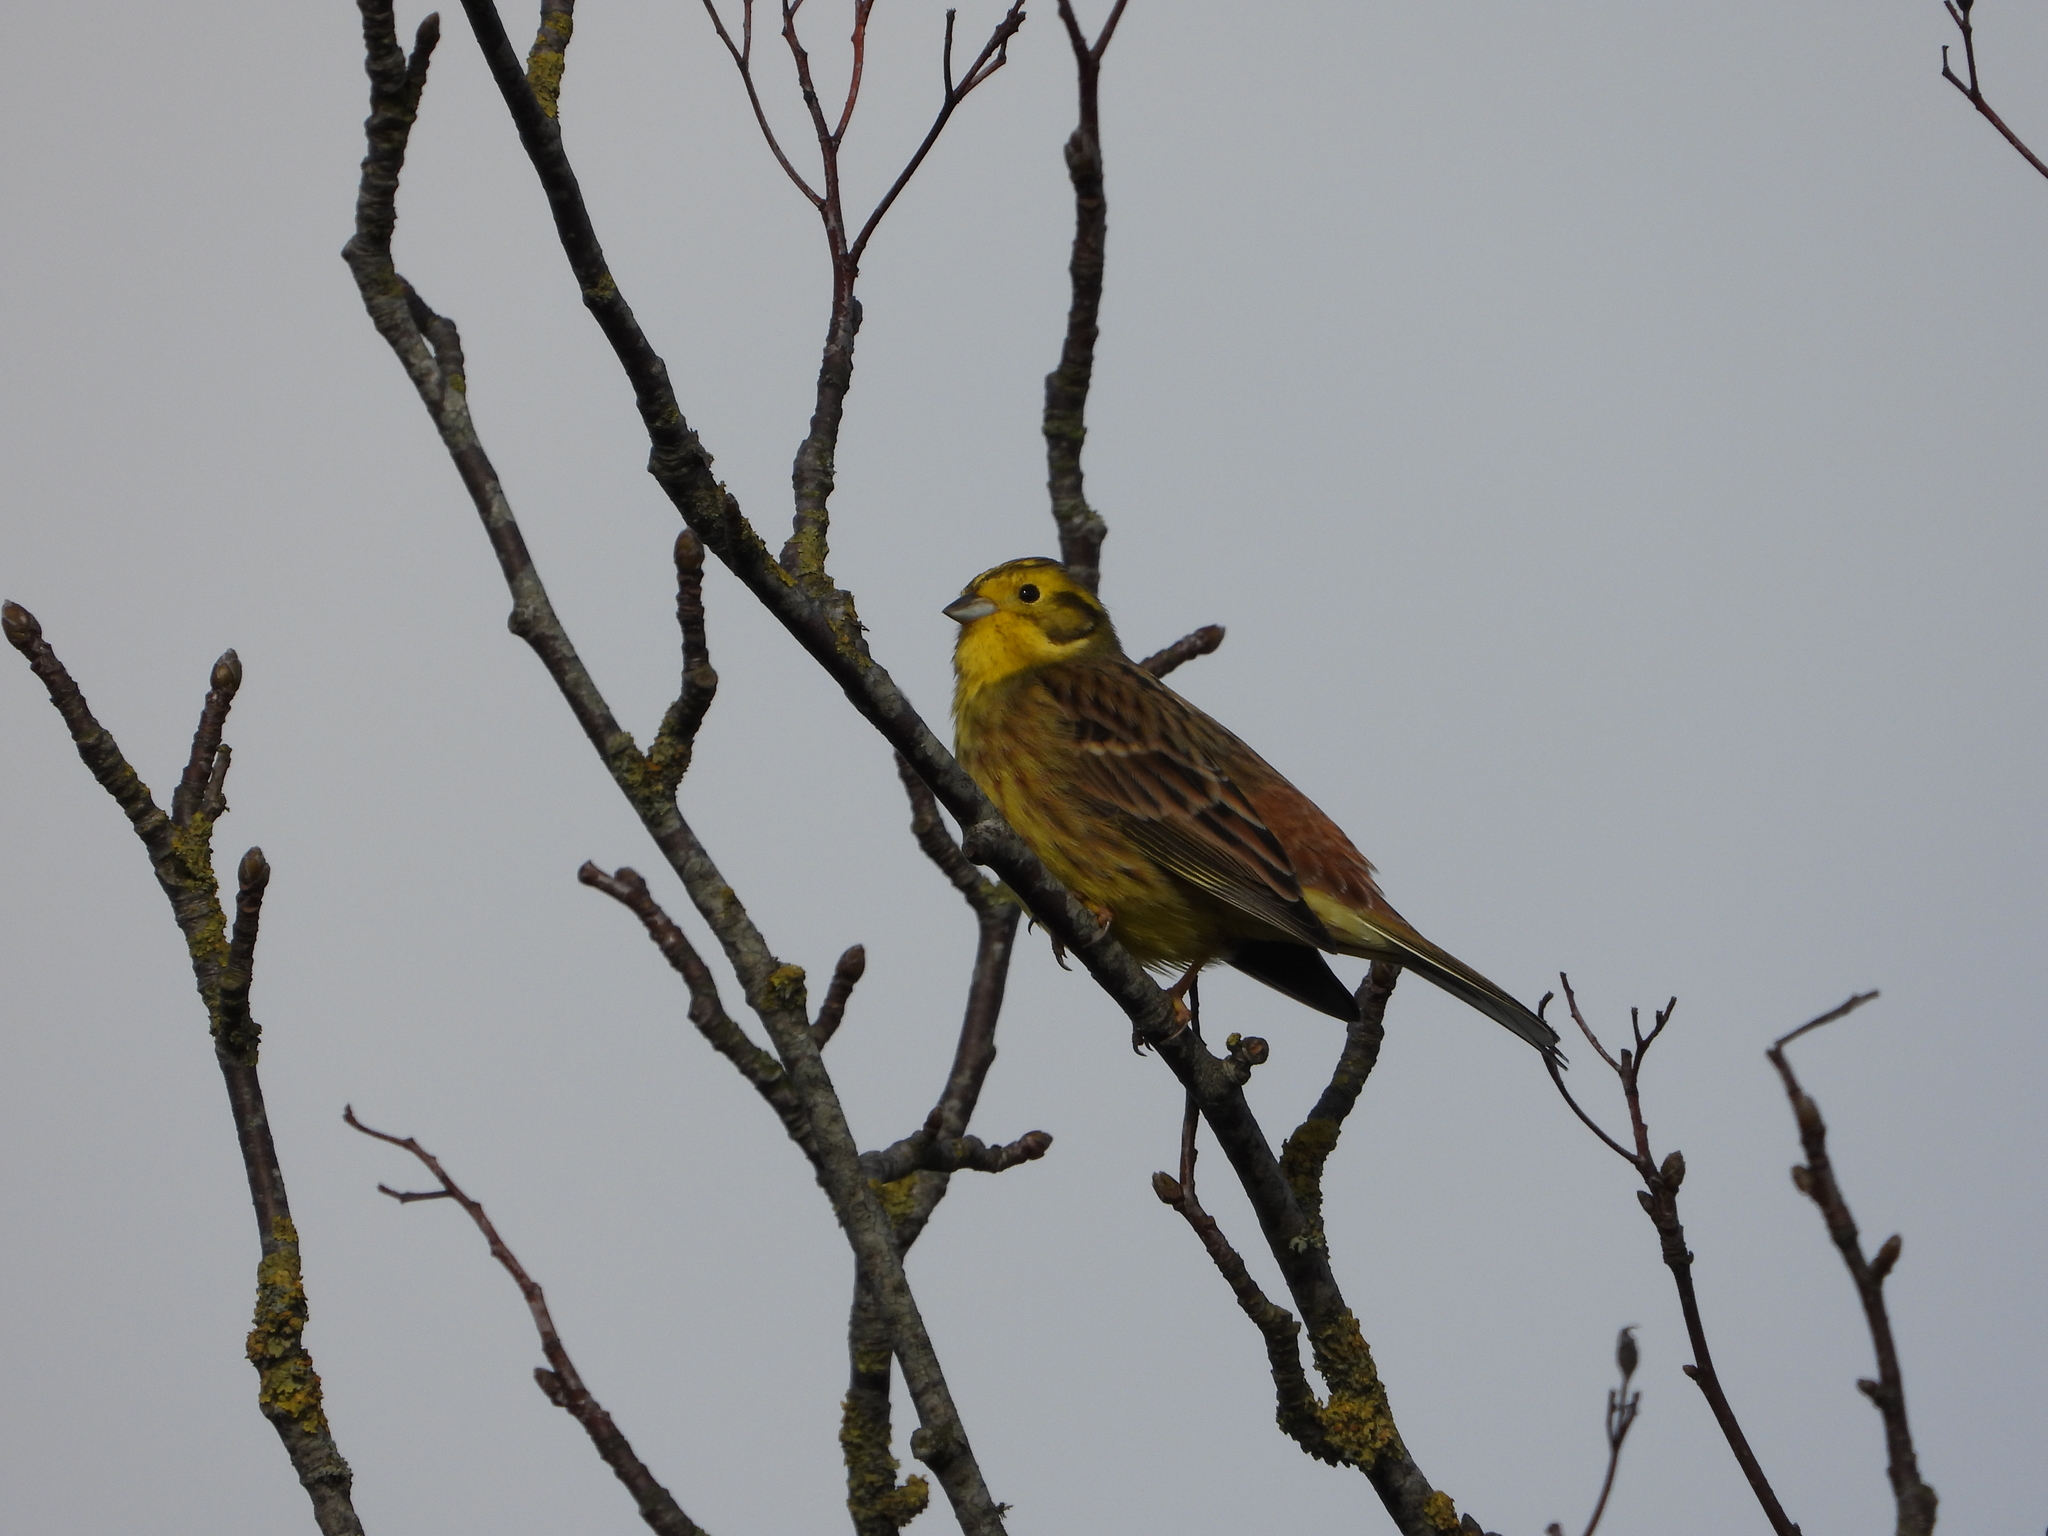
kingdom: Animalia
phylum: Chordata
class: Aves
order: Passeriformes
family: Emberizidae
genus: Emberiza
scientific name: Emberiza citrinella
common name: Yellowhammer
